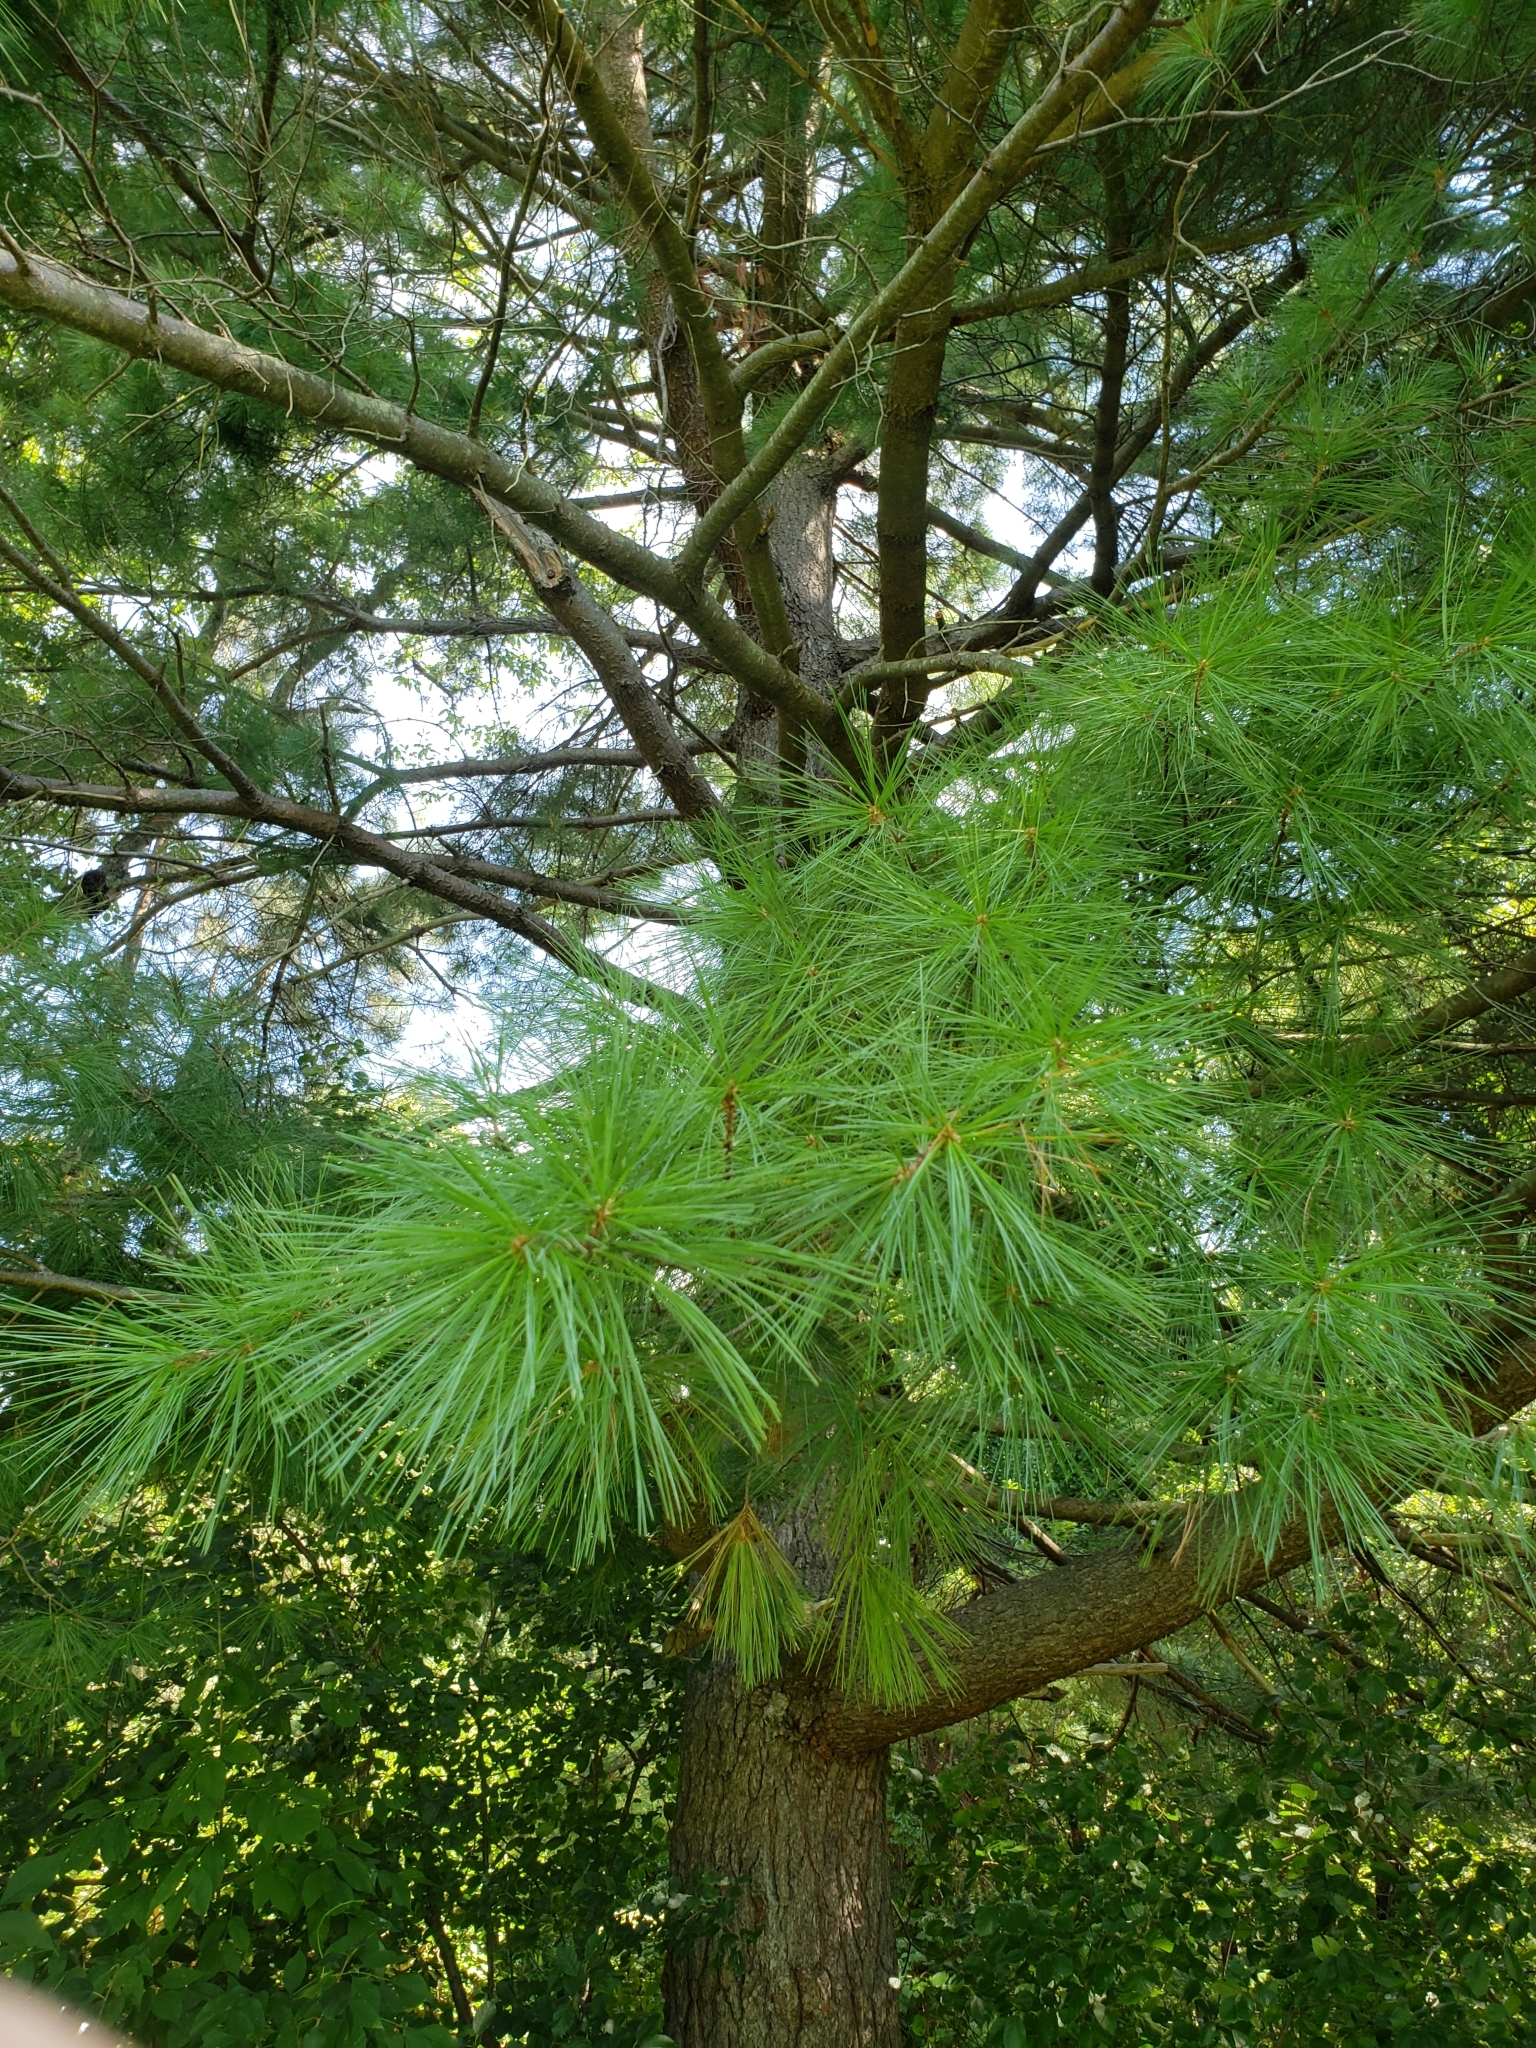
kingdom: Plantae
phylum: Tracheophyta
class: Pinopsida
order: Pinales
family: Pinaceae
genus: Pinus
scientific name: Pinus strobus
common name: Weymouth pine
